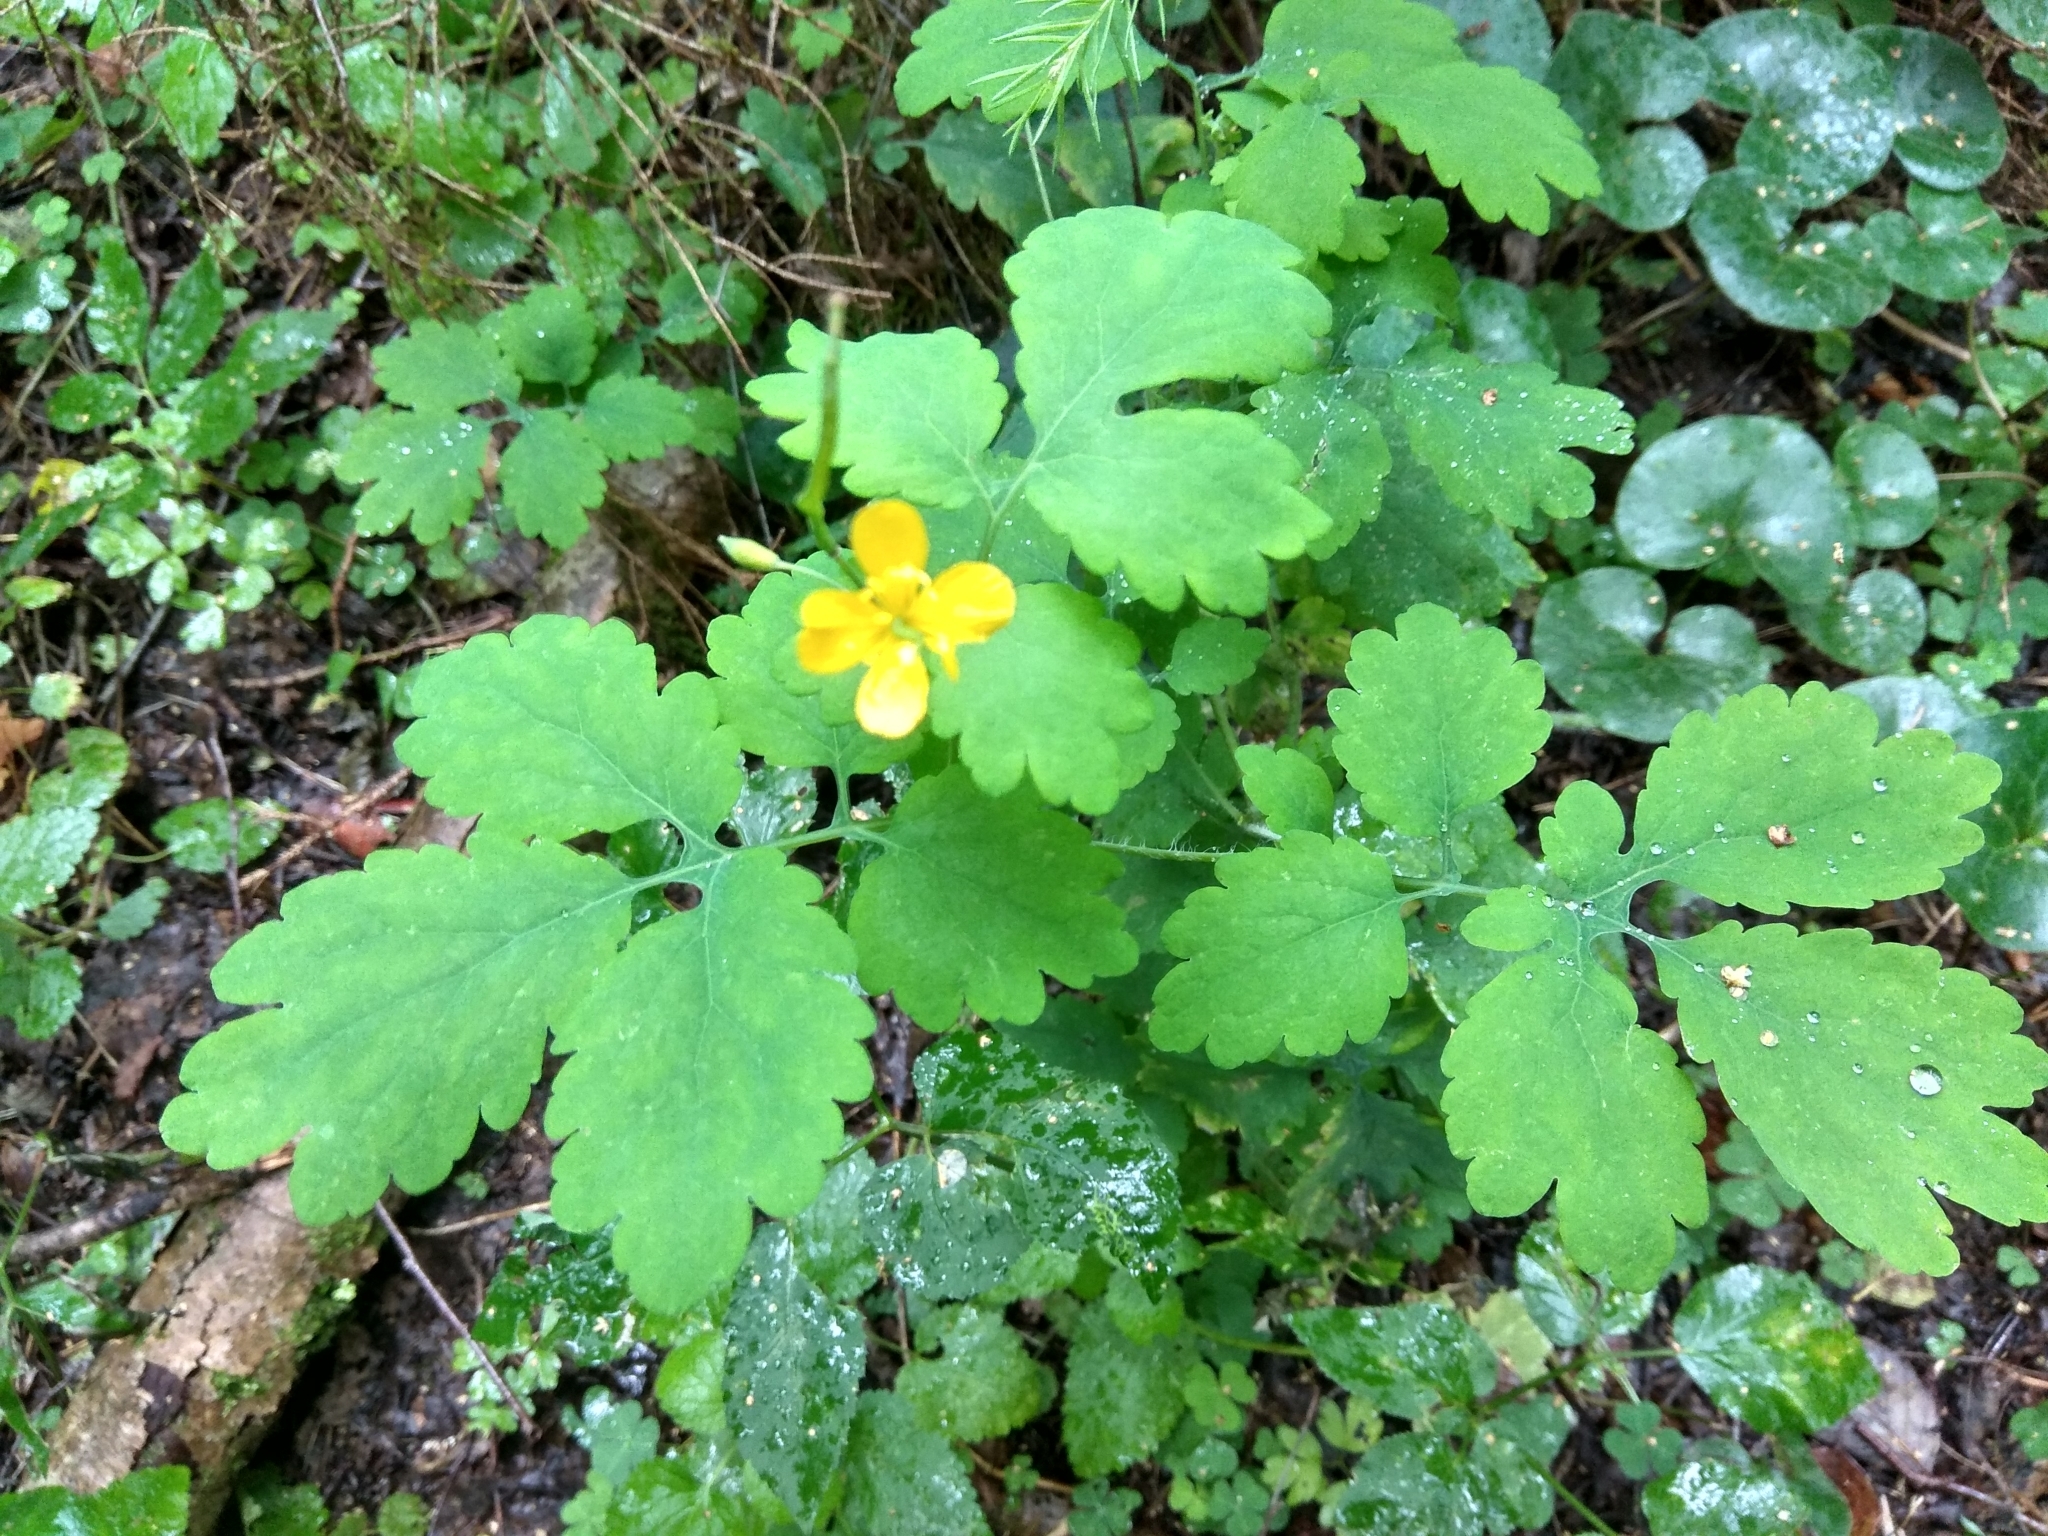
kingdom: Plantae
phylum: Tracheophyta
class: Magnoliopsida
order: Ranunculales
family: Papaveraceae
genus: Chelidonium
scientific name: Chelidonium majus
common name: Greater celandine
